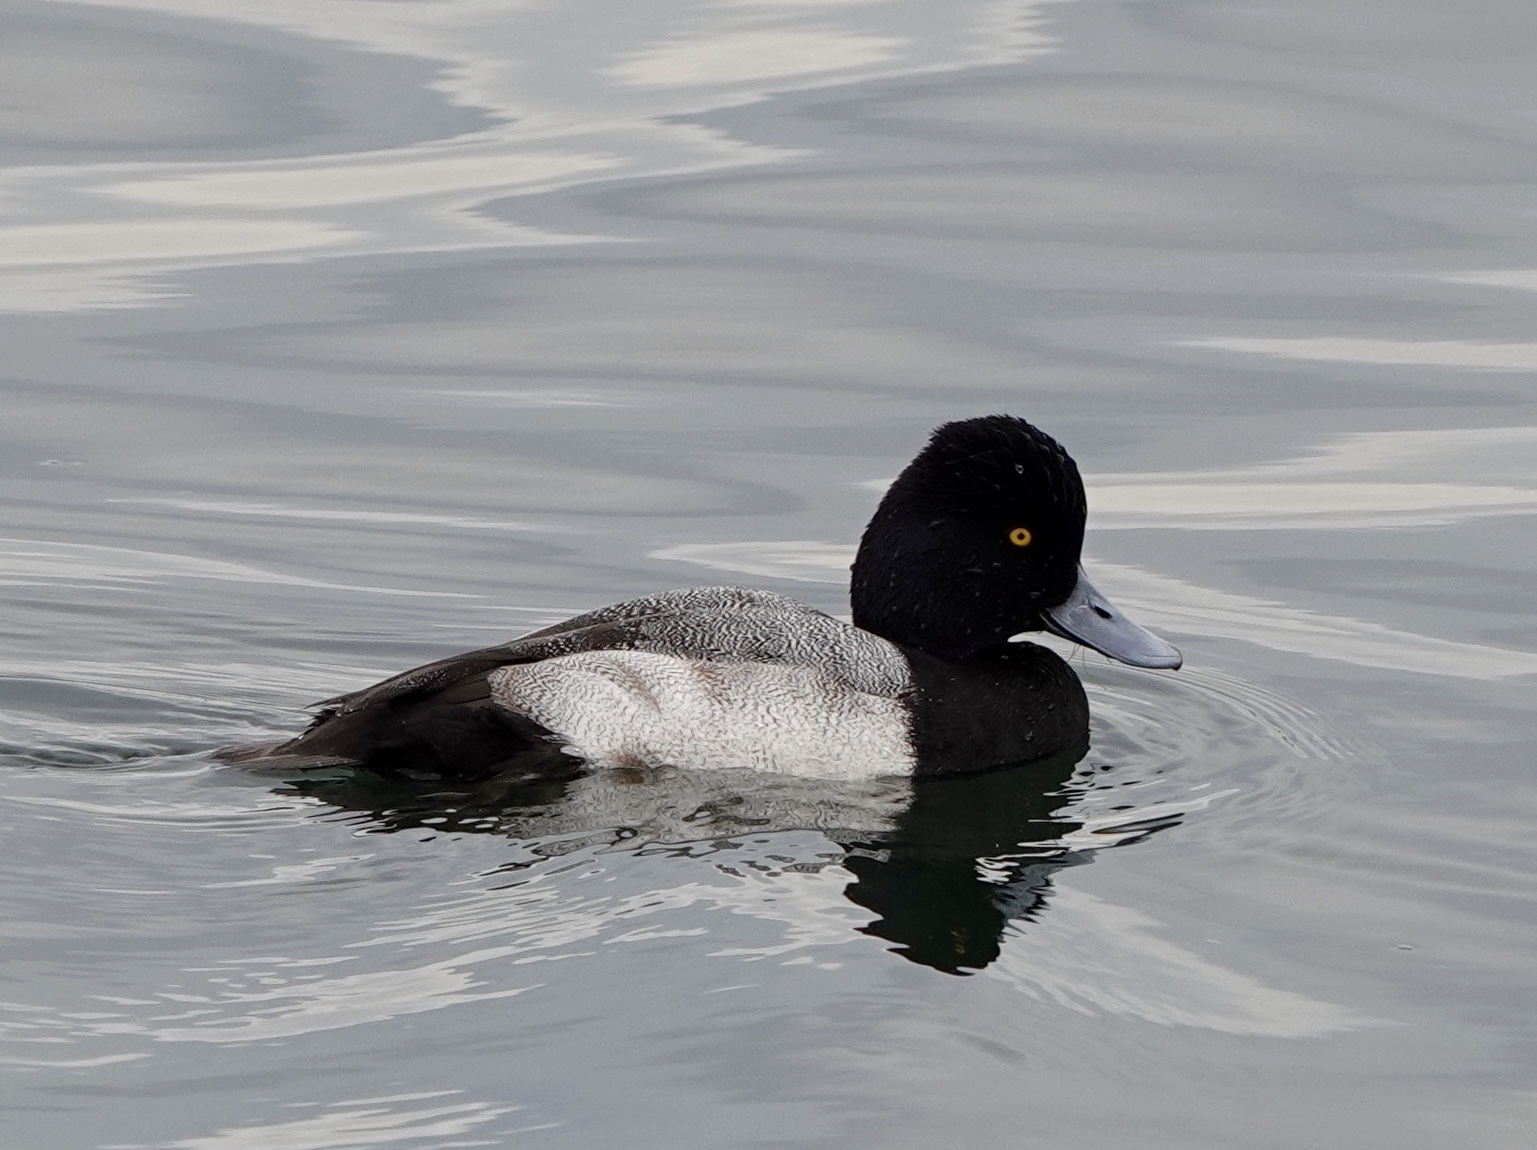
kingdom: Animalia
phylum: Chordata
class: Aves
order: Anseriformes
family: Anatidae
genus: Aythya
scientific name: Aythya affinis
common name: Lesser scaup
